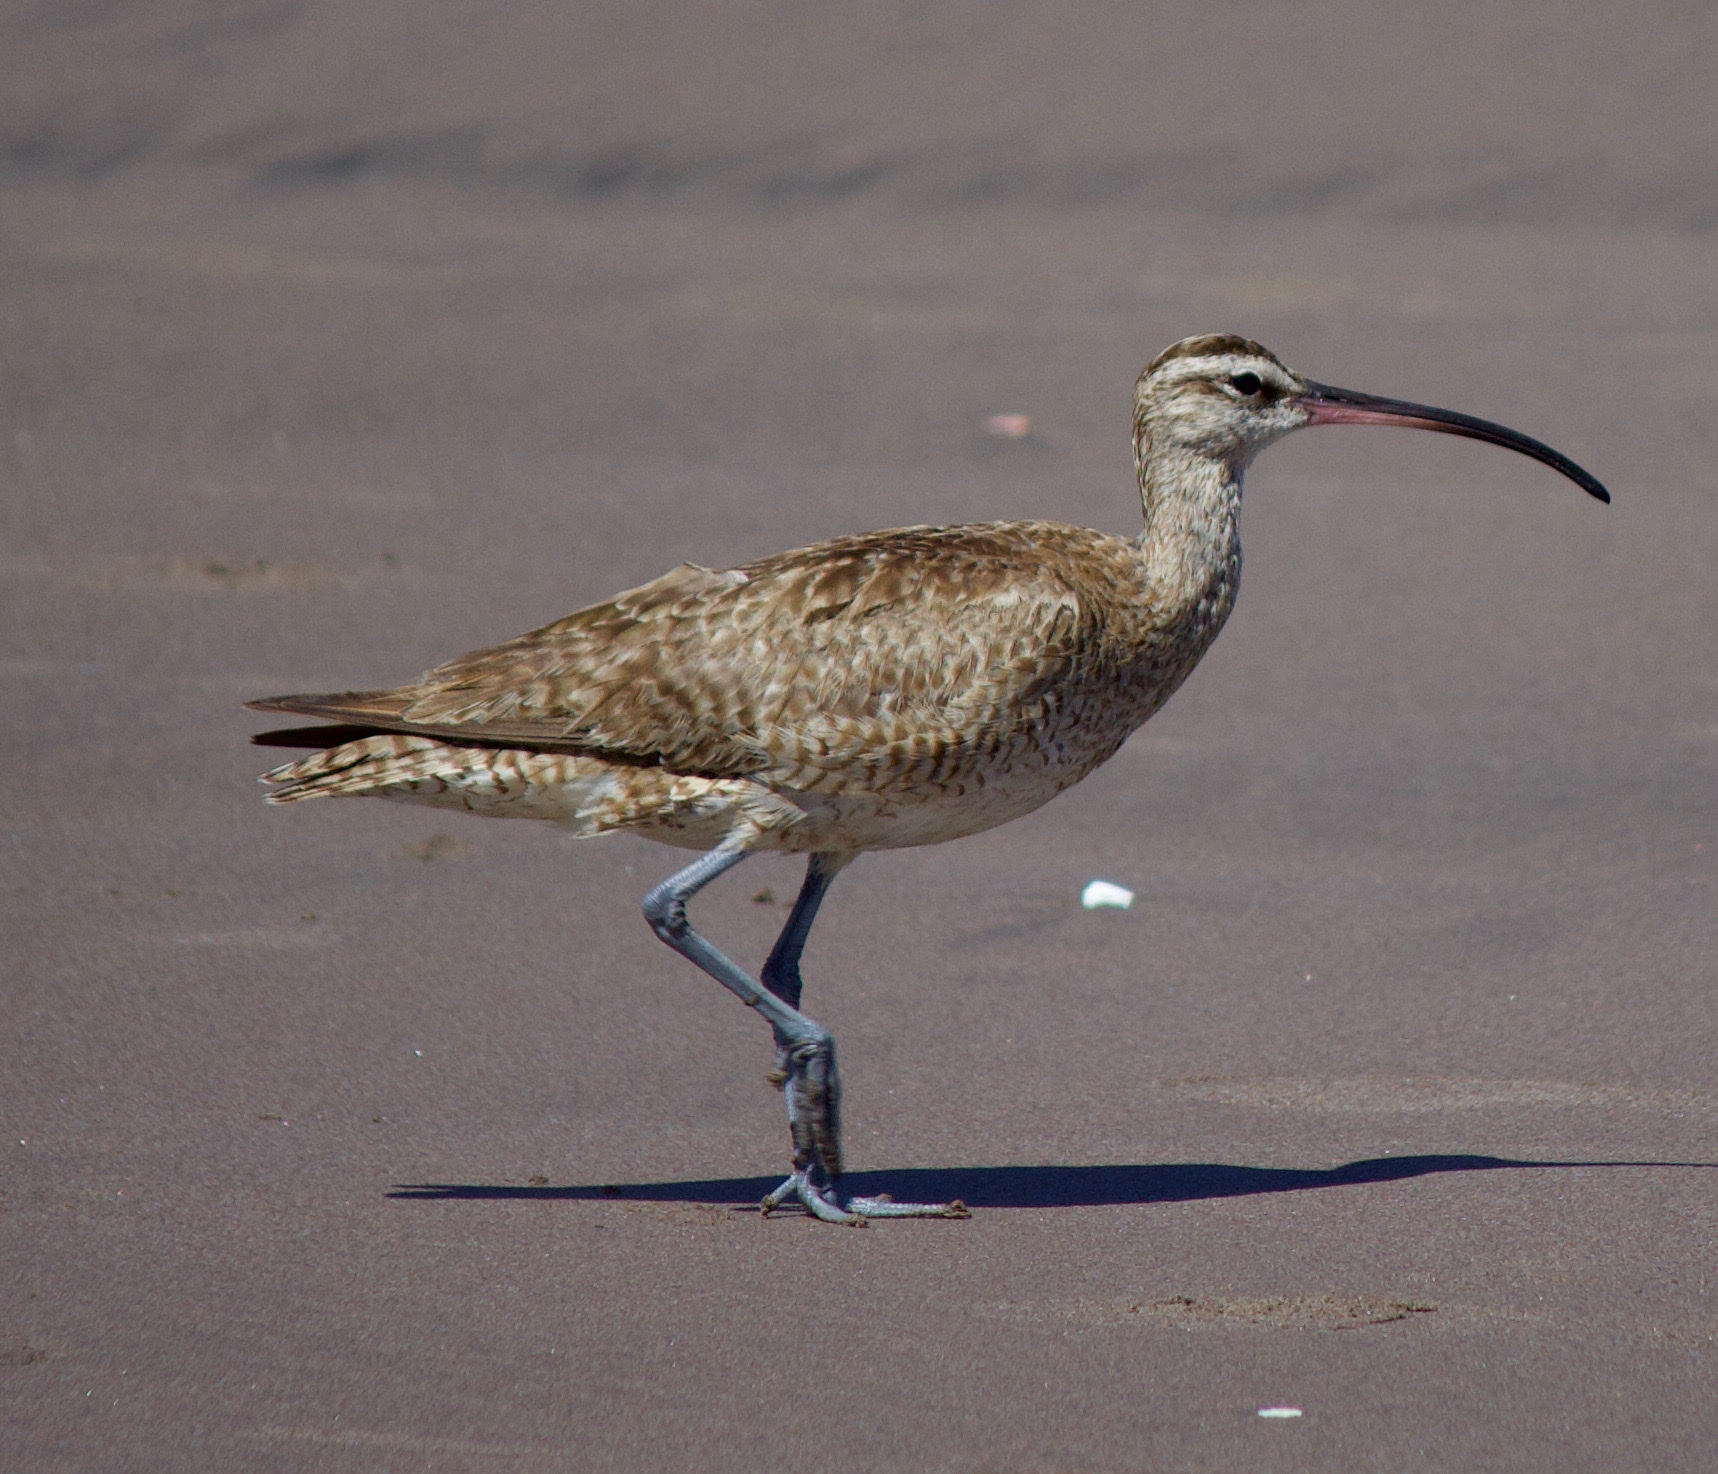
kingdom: Animalia
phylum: Chordata
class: Aves
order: Charadriiformes
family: Scolopacidae
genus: Numenius
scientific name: Numenius phaeopus
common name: Whimbrel
